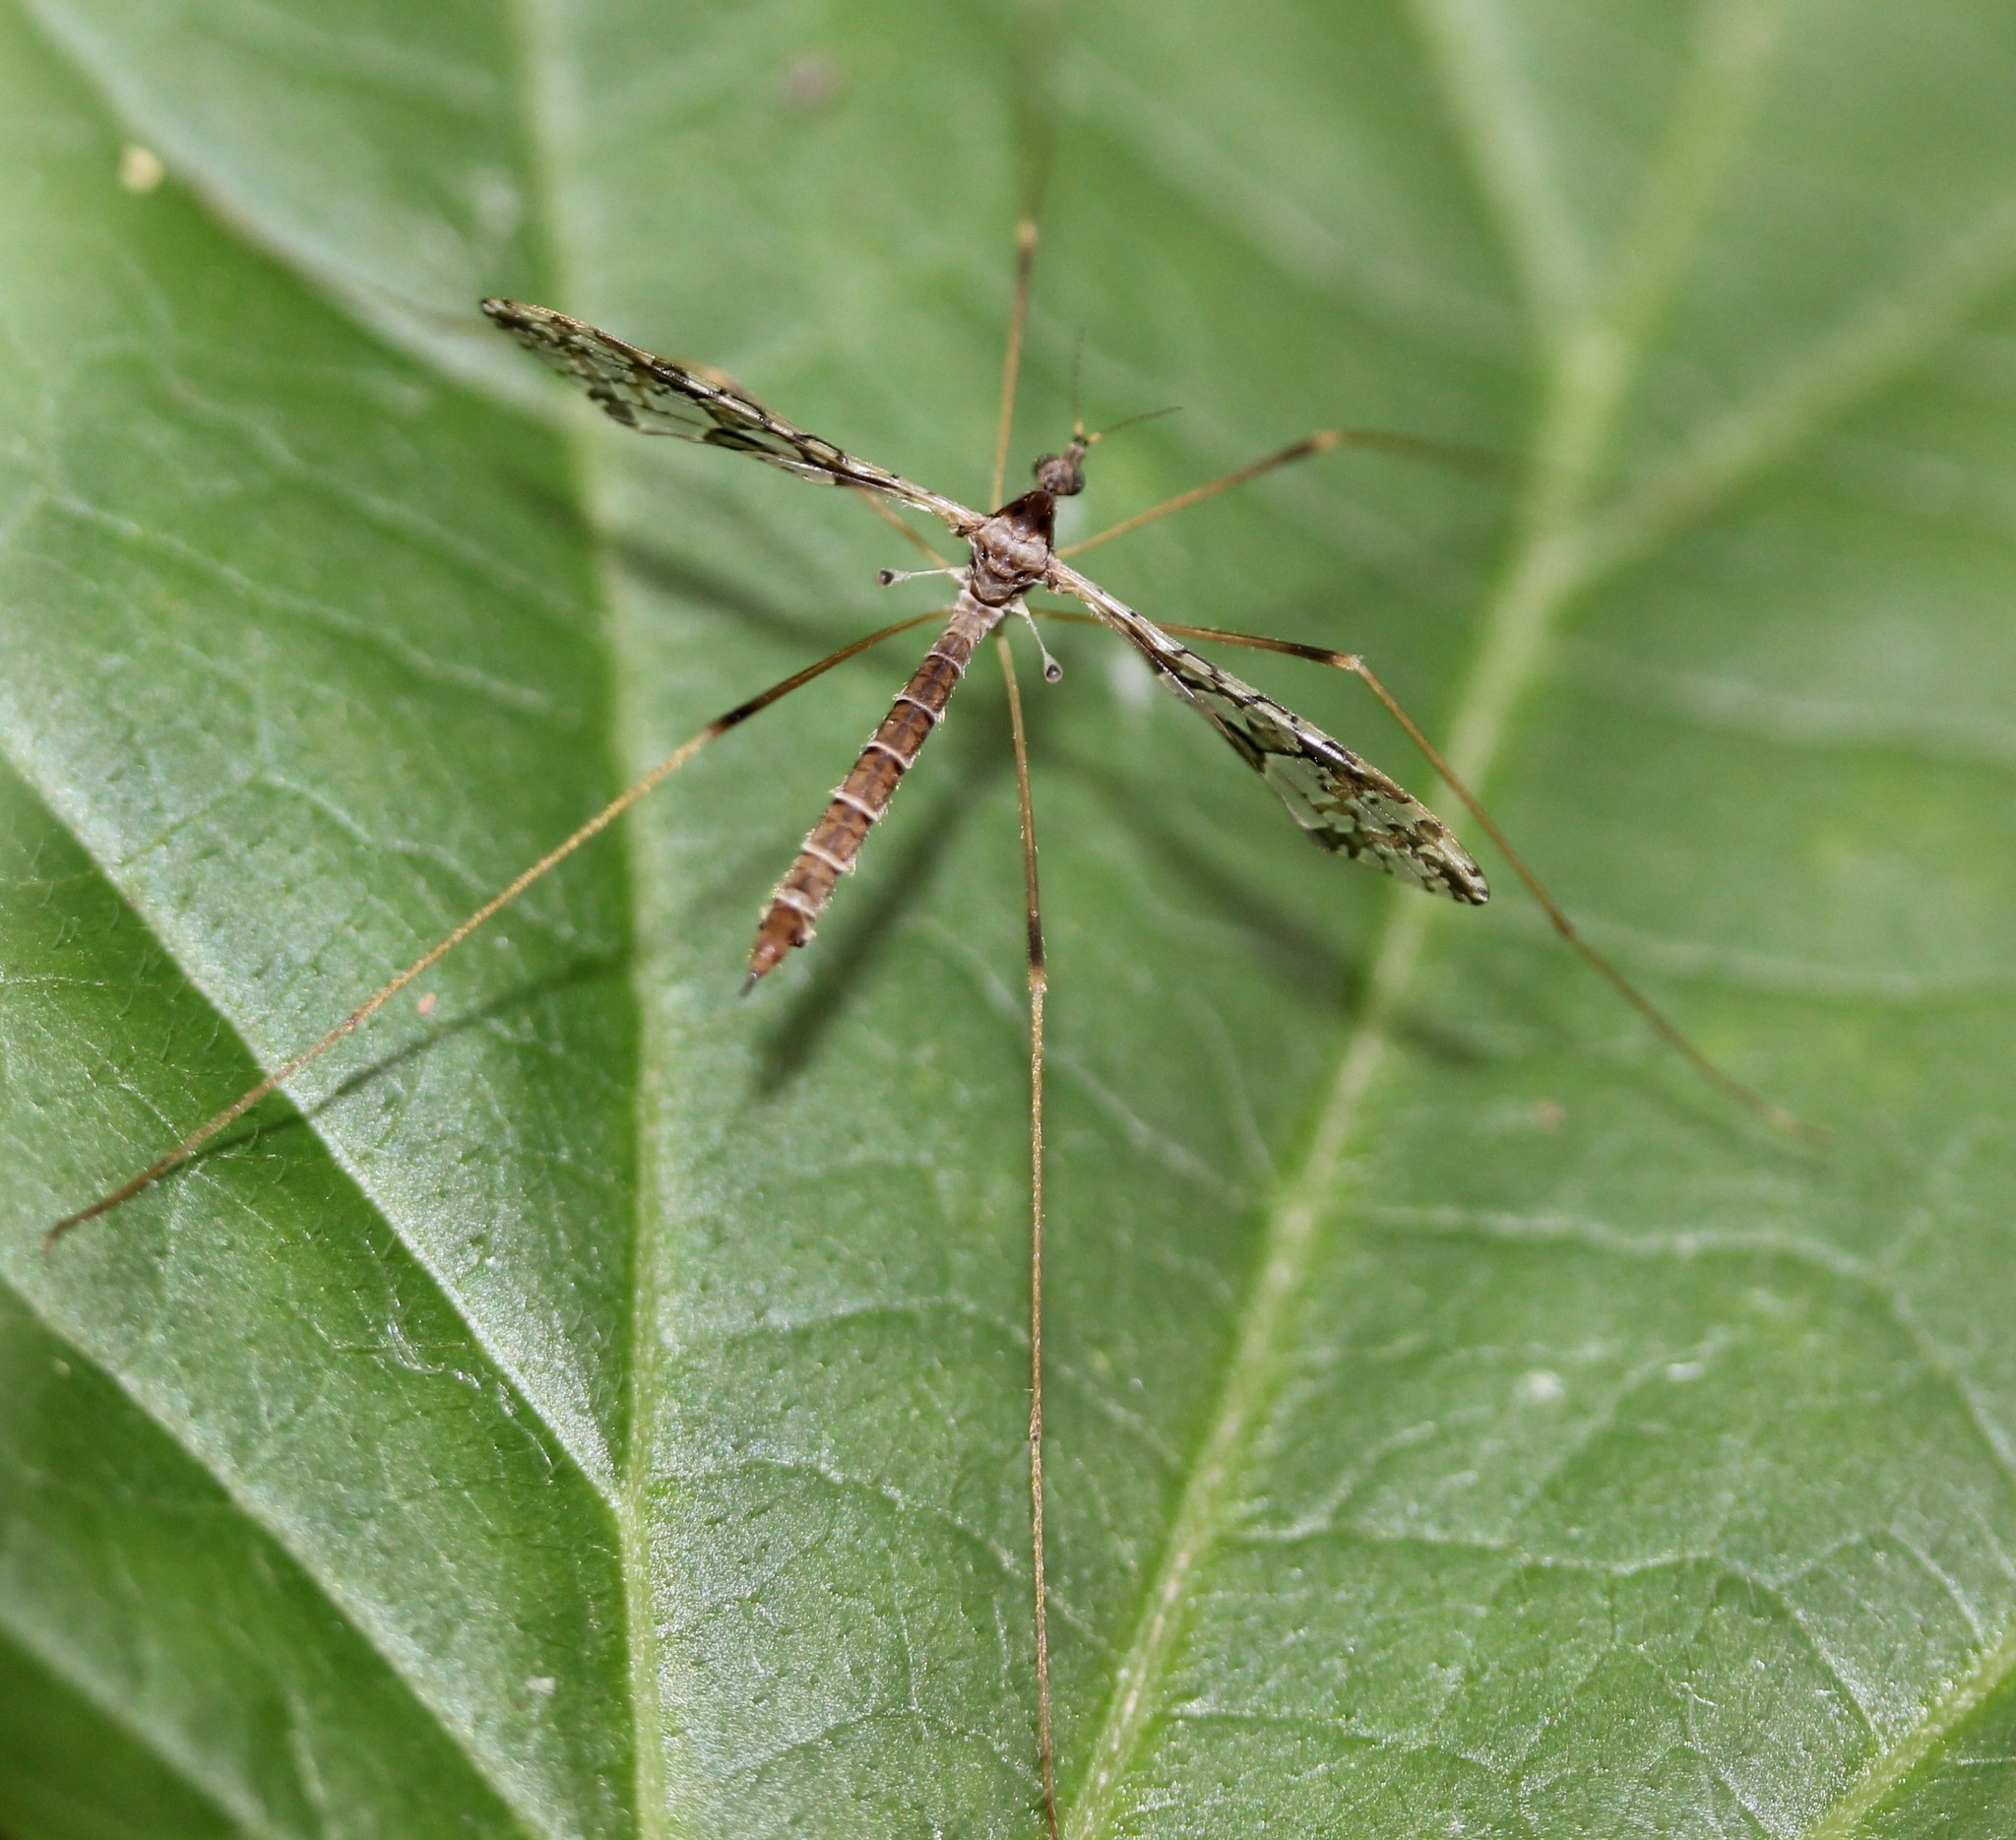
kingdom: Animalia
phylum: Arthropoda
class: Insecta
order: Diptera
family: Limoniidae
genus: Epiphragma
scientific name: Epiphragma solatrix
